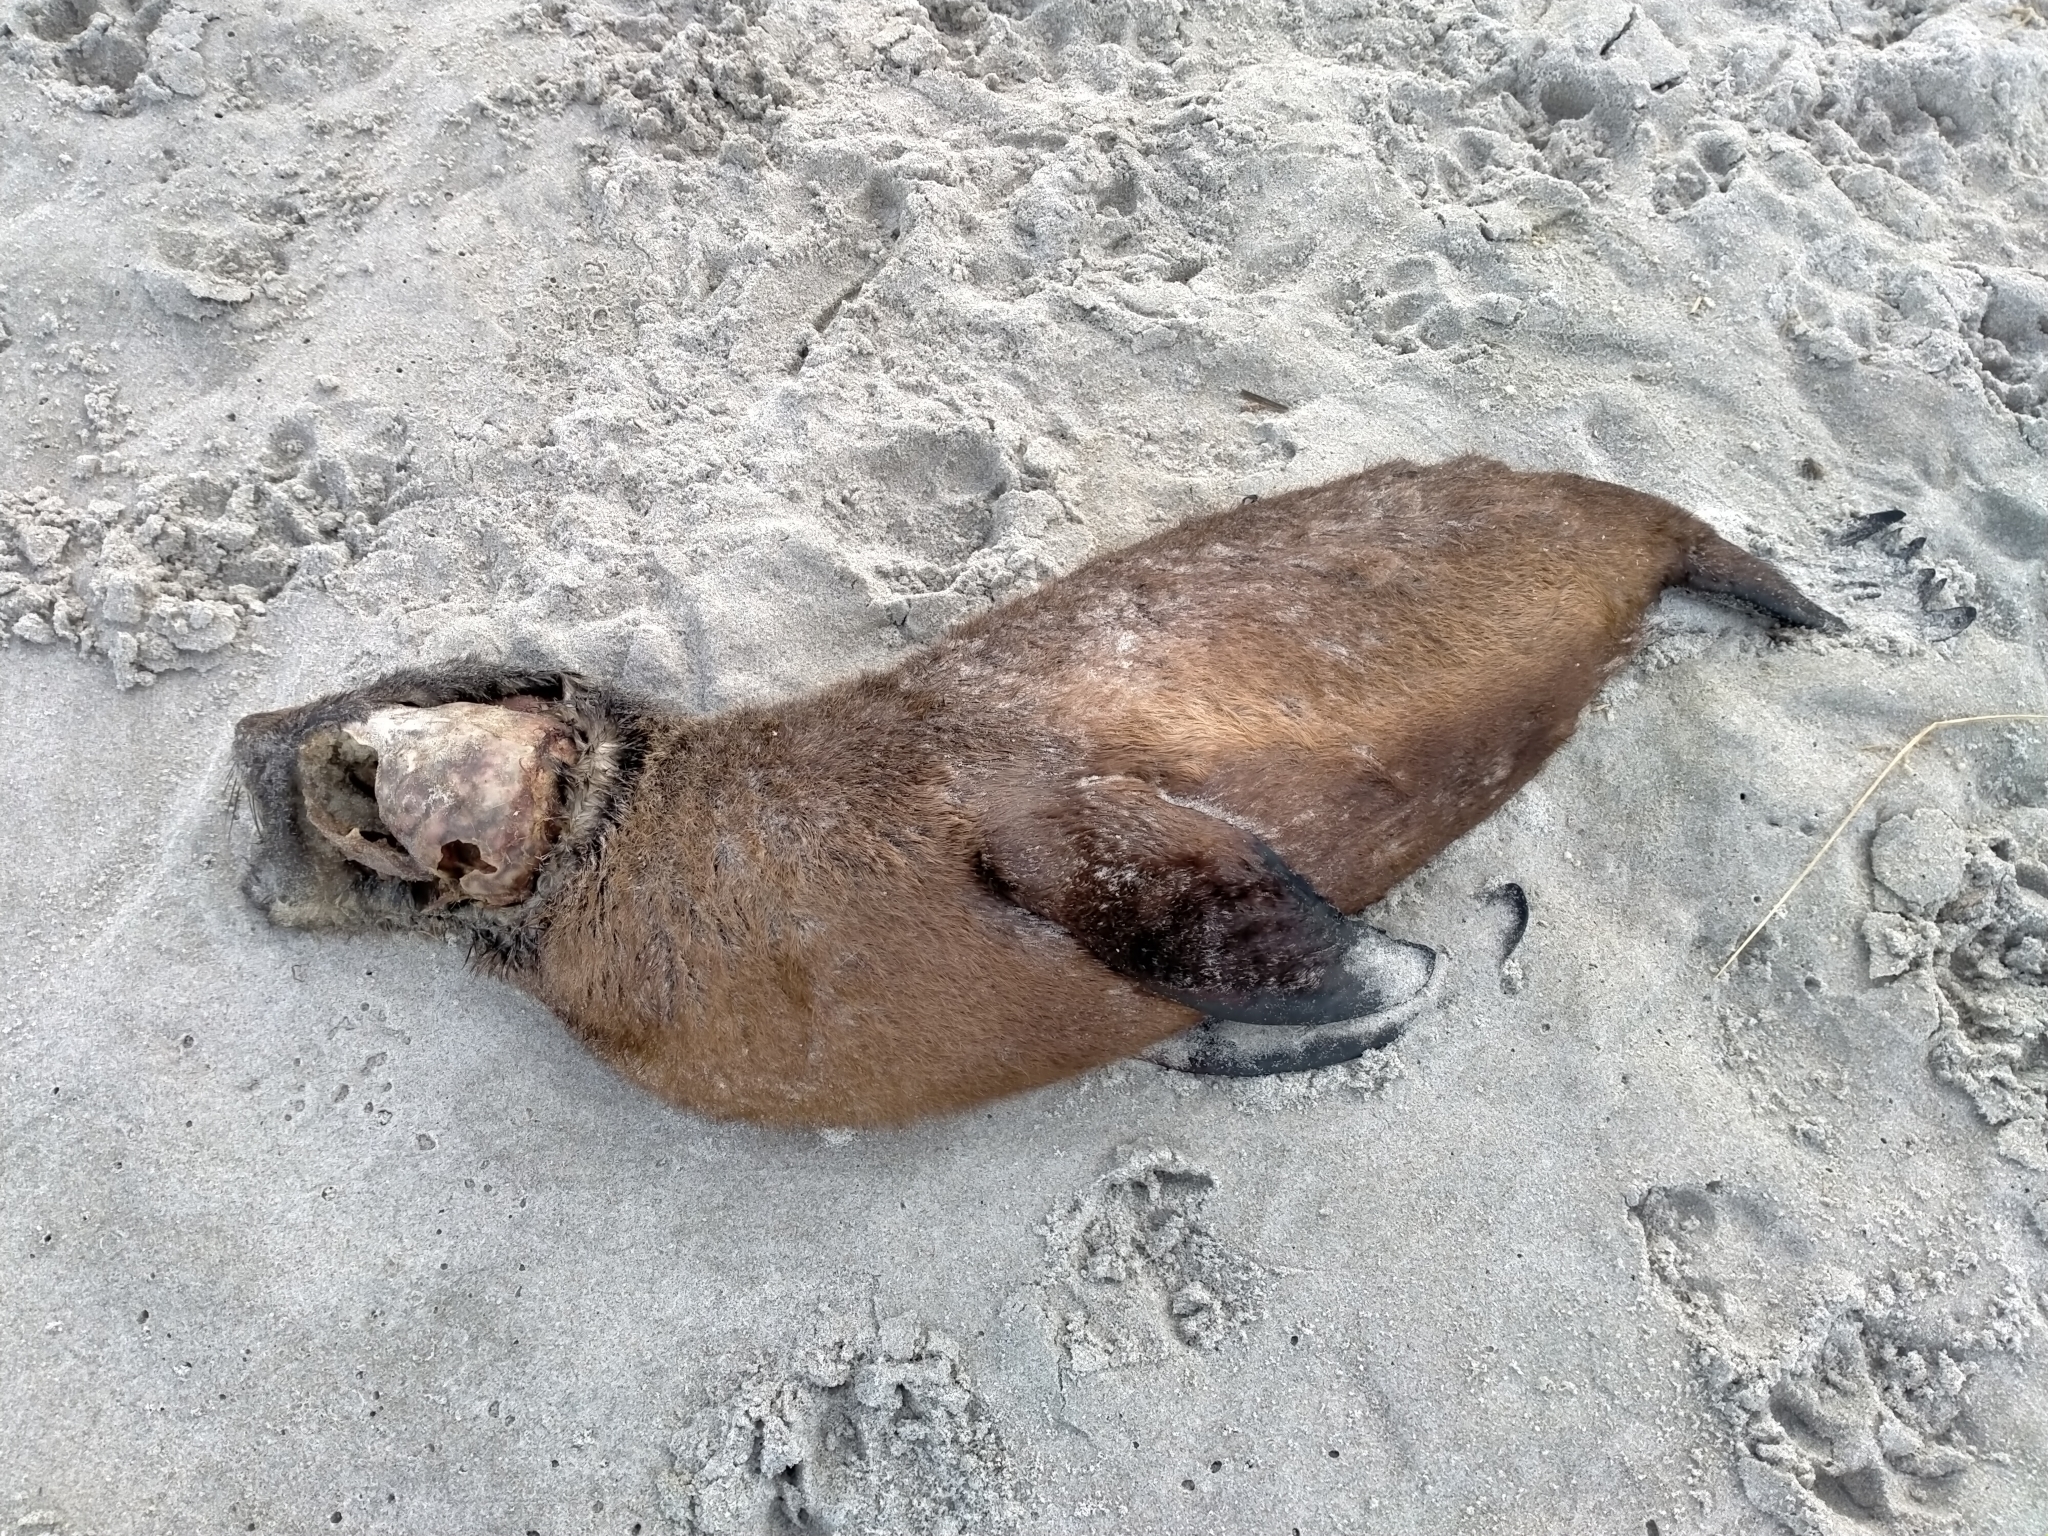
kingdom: Animalia
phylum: Chordata
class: Mammalia
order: Carnivora
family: Otariidae
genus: Arctocephalus
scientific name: Arctocephalus forsteri
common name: New zealand fur seal
